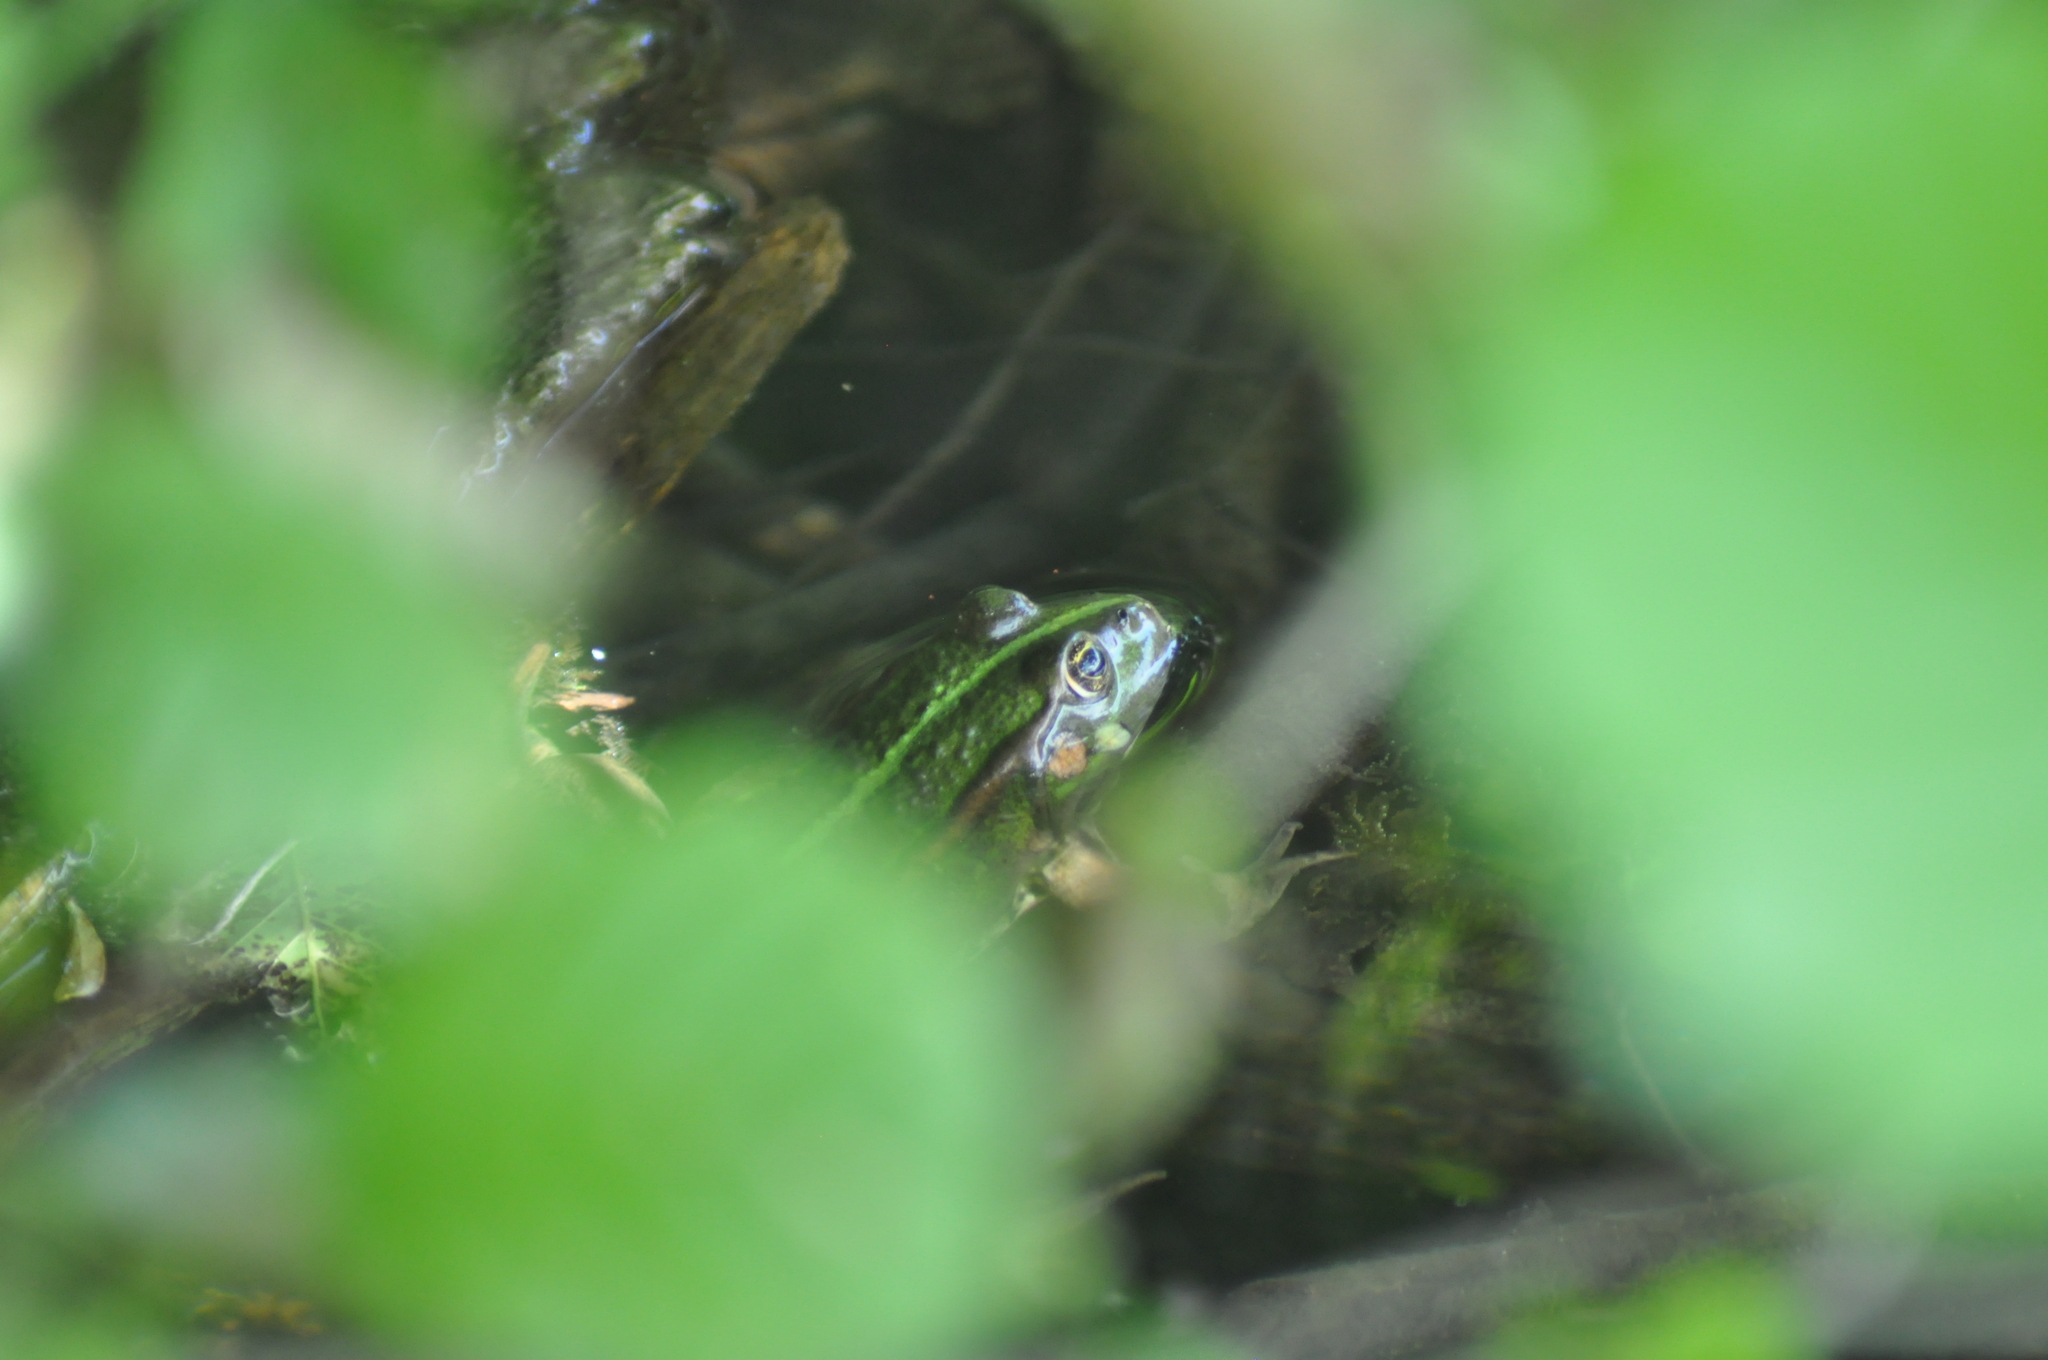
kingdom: Animalia
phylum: Chordata
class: Amphibia
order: Anura
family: Ranidae
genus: Pelophylax
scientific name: Pelophylax
